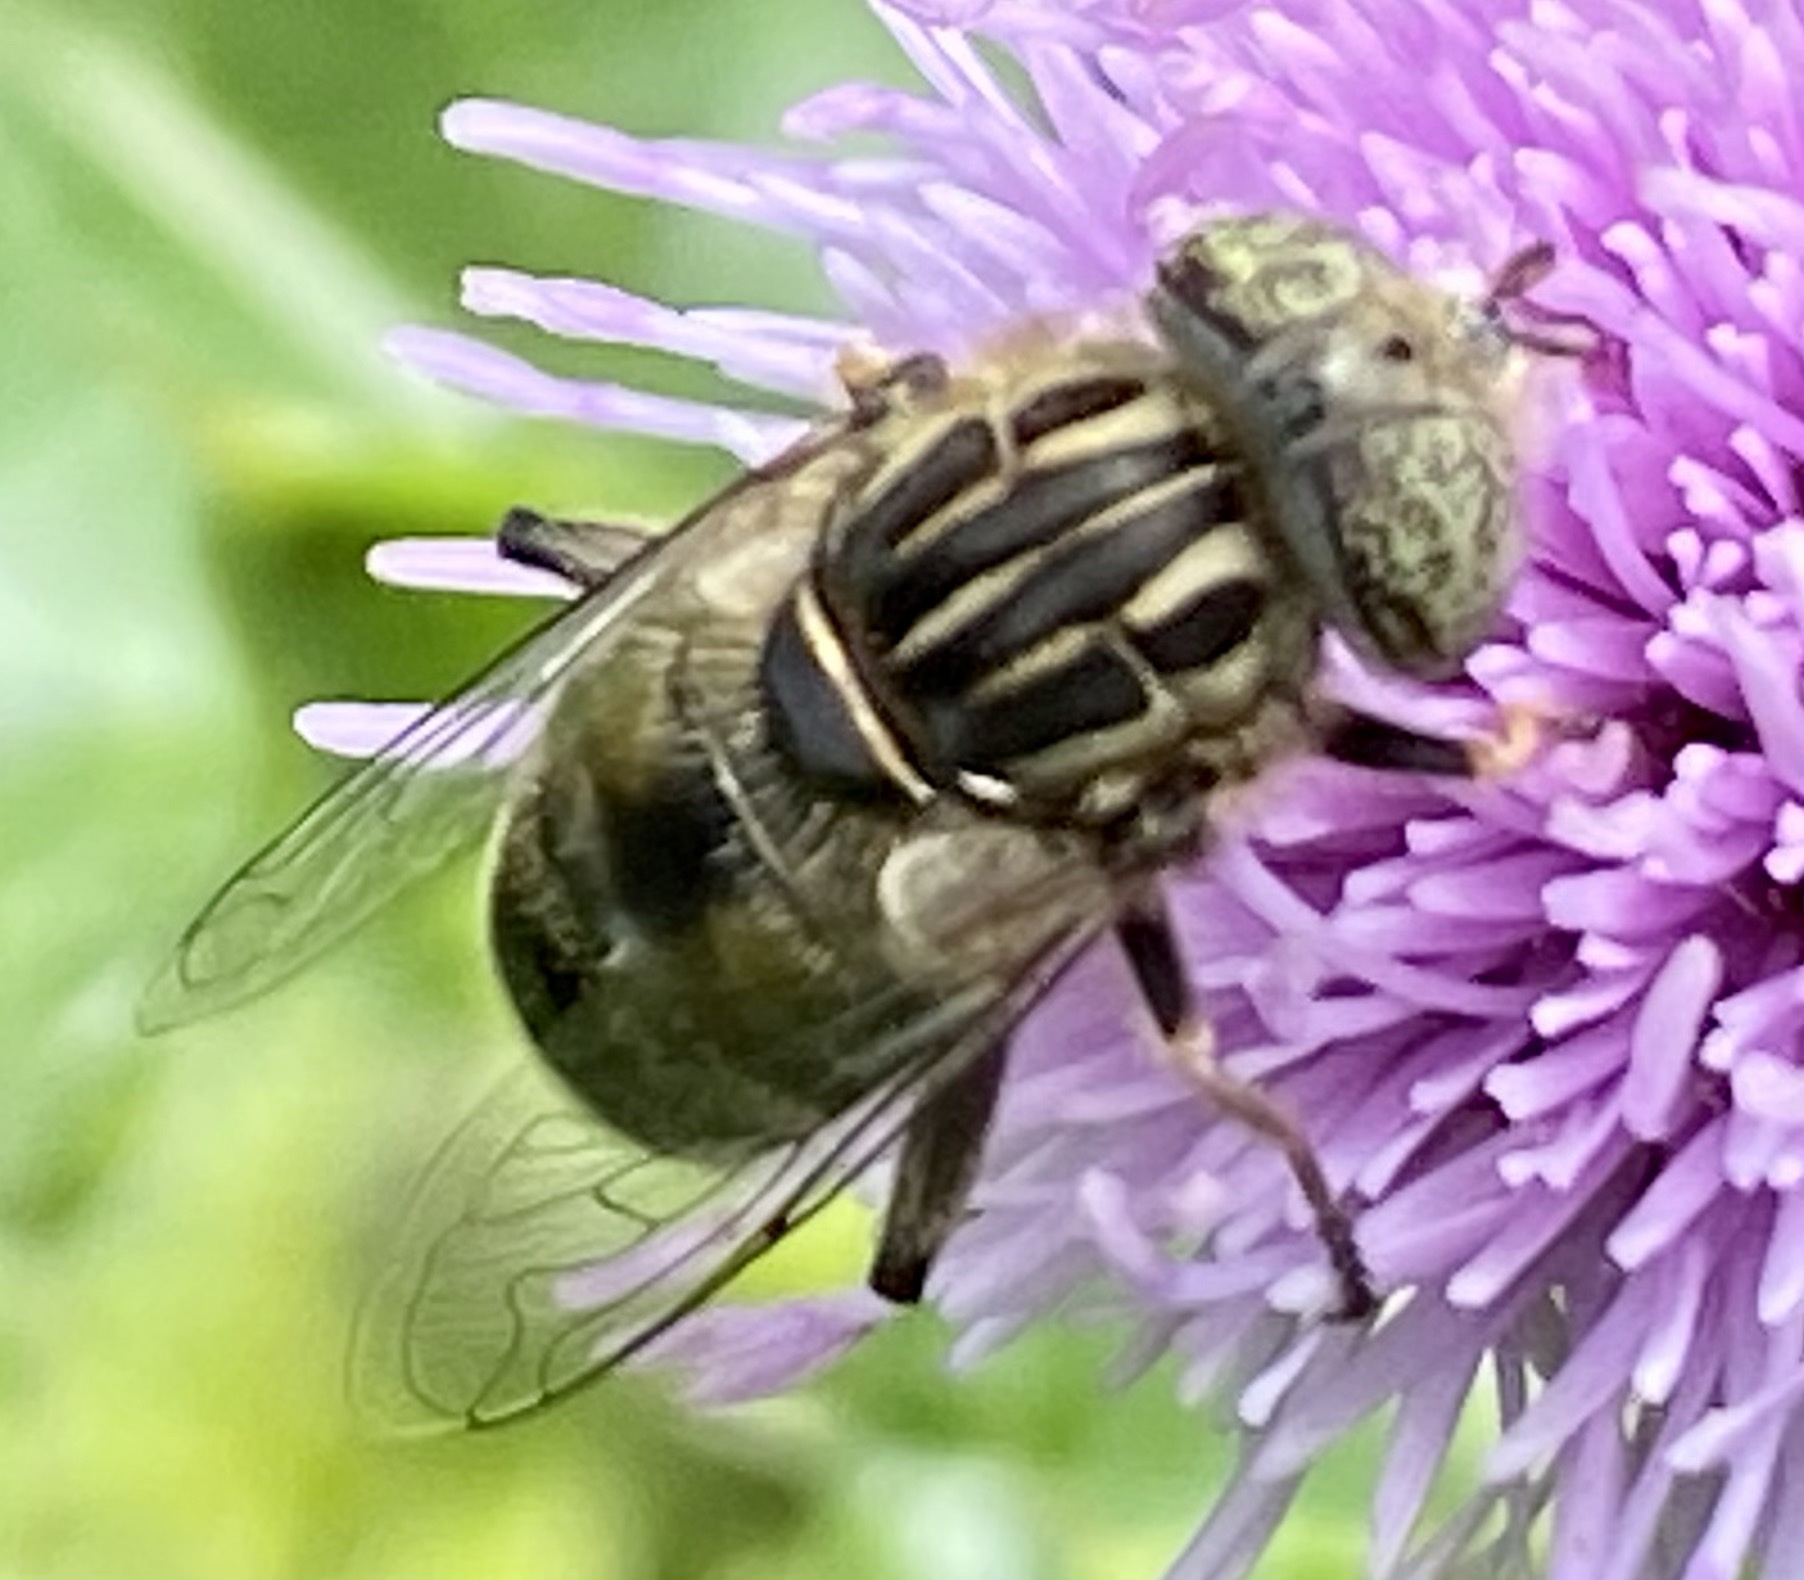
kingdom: Animalia
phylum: Arthropoda
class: Insecta
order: Diptera
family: Syrphidae
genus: Eristalinus
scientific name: Eristalinus sepulchralis
